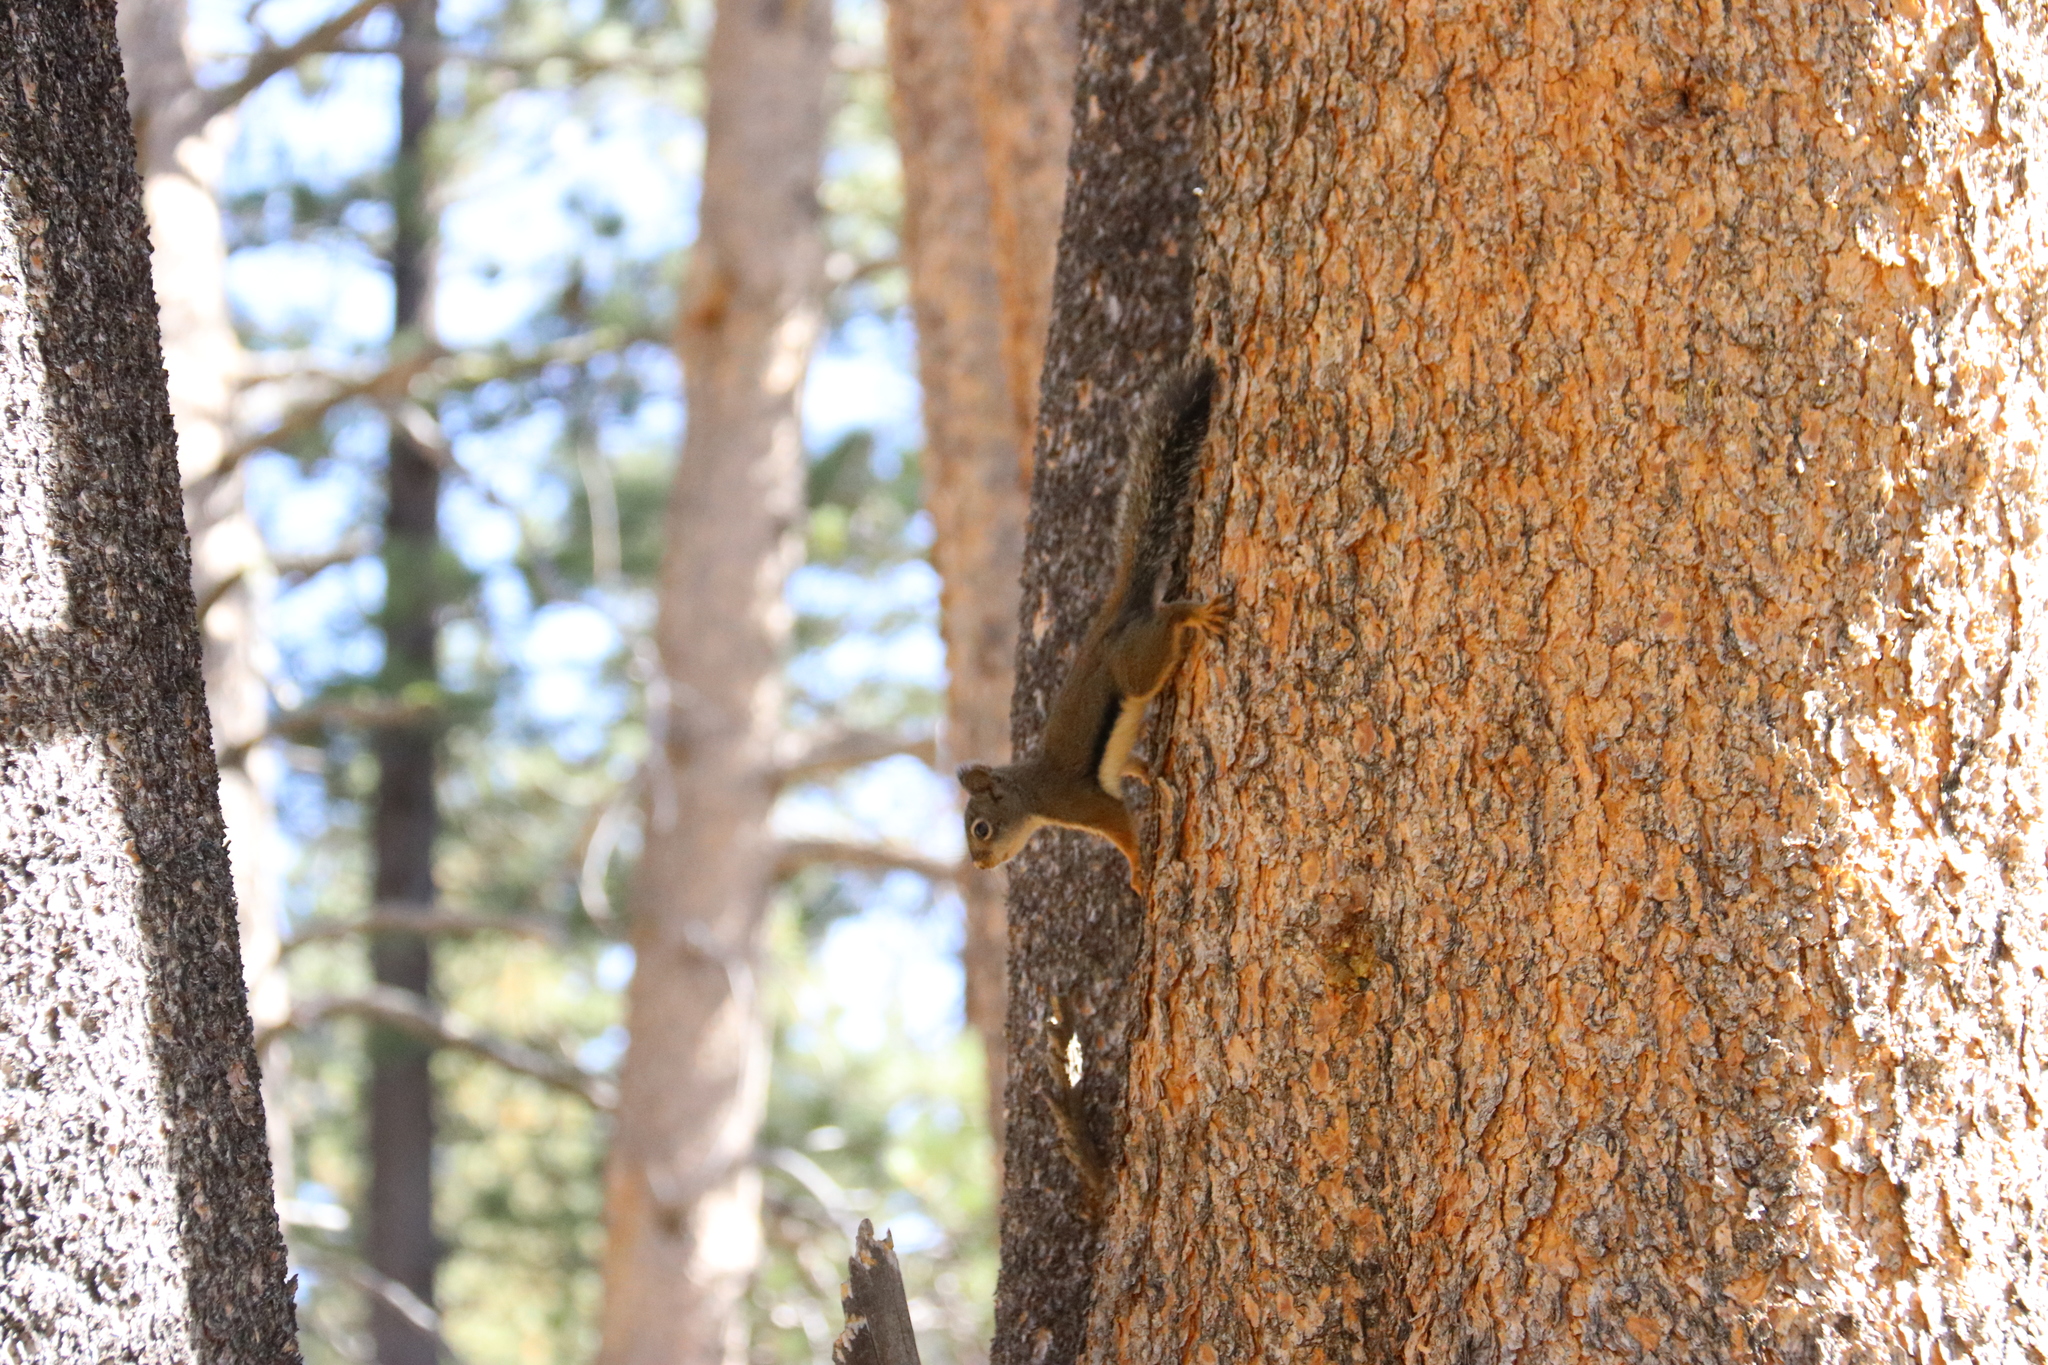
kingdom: Animalia
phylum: Chordata
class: Mammalia
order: Rodentia
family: Sciuridae
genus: Tamiasciurus
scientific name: Tamiasciurus douglasii
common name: Douglas's squirrel
